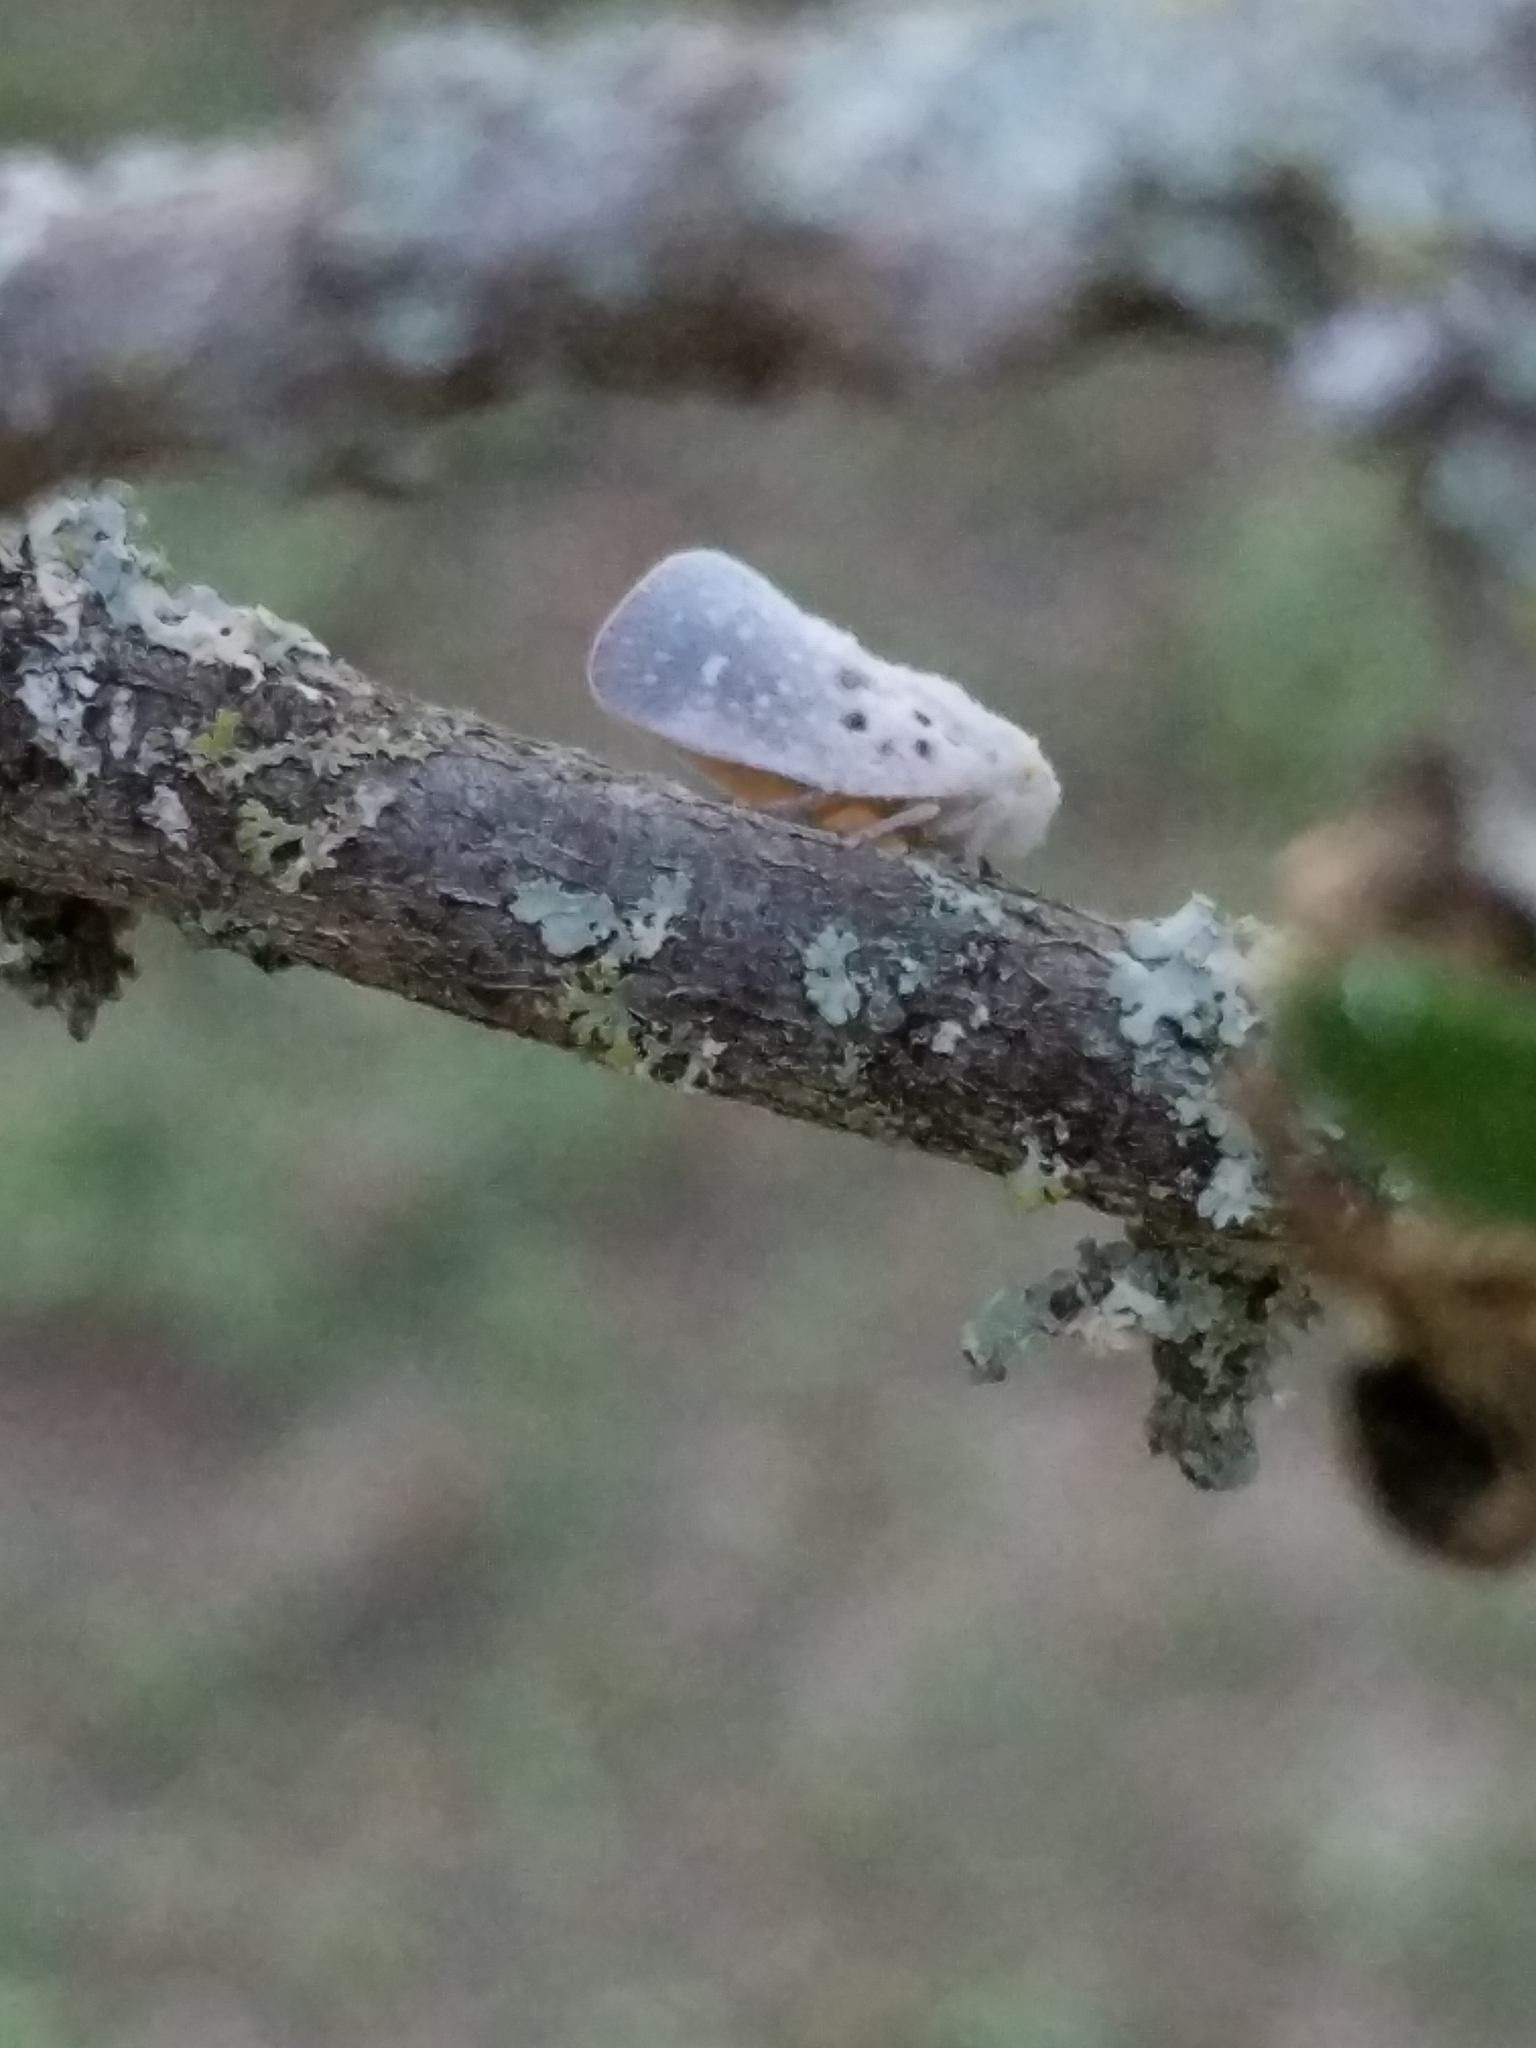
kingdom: Animalia
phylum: Arthropoda
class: Insecta
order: Hemiptera
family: Flatidae
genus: Metcalfa
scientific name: Metcalfa pruinosa
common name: Citrus flatid planthopper
